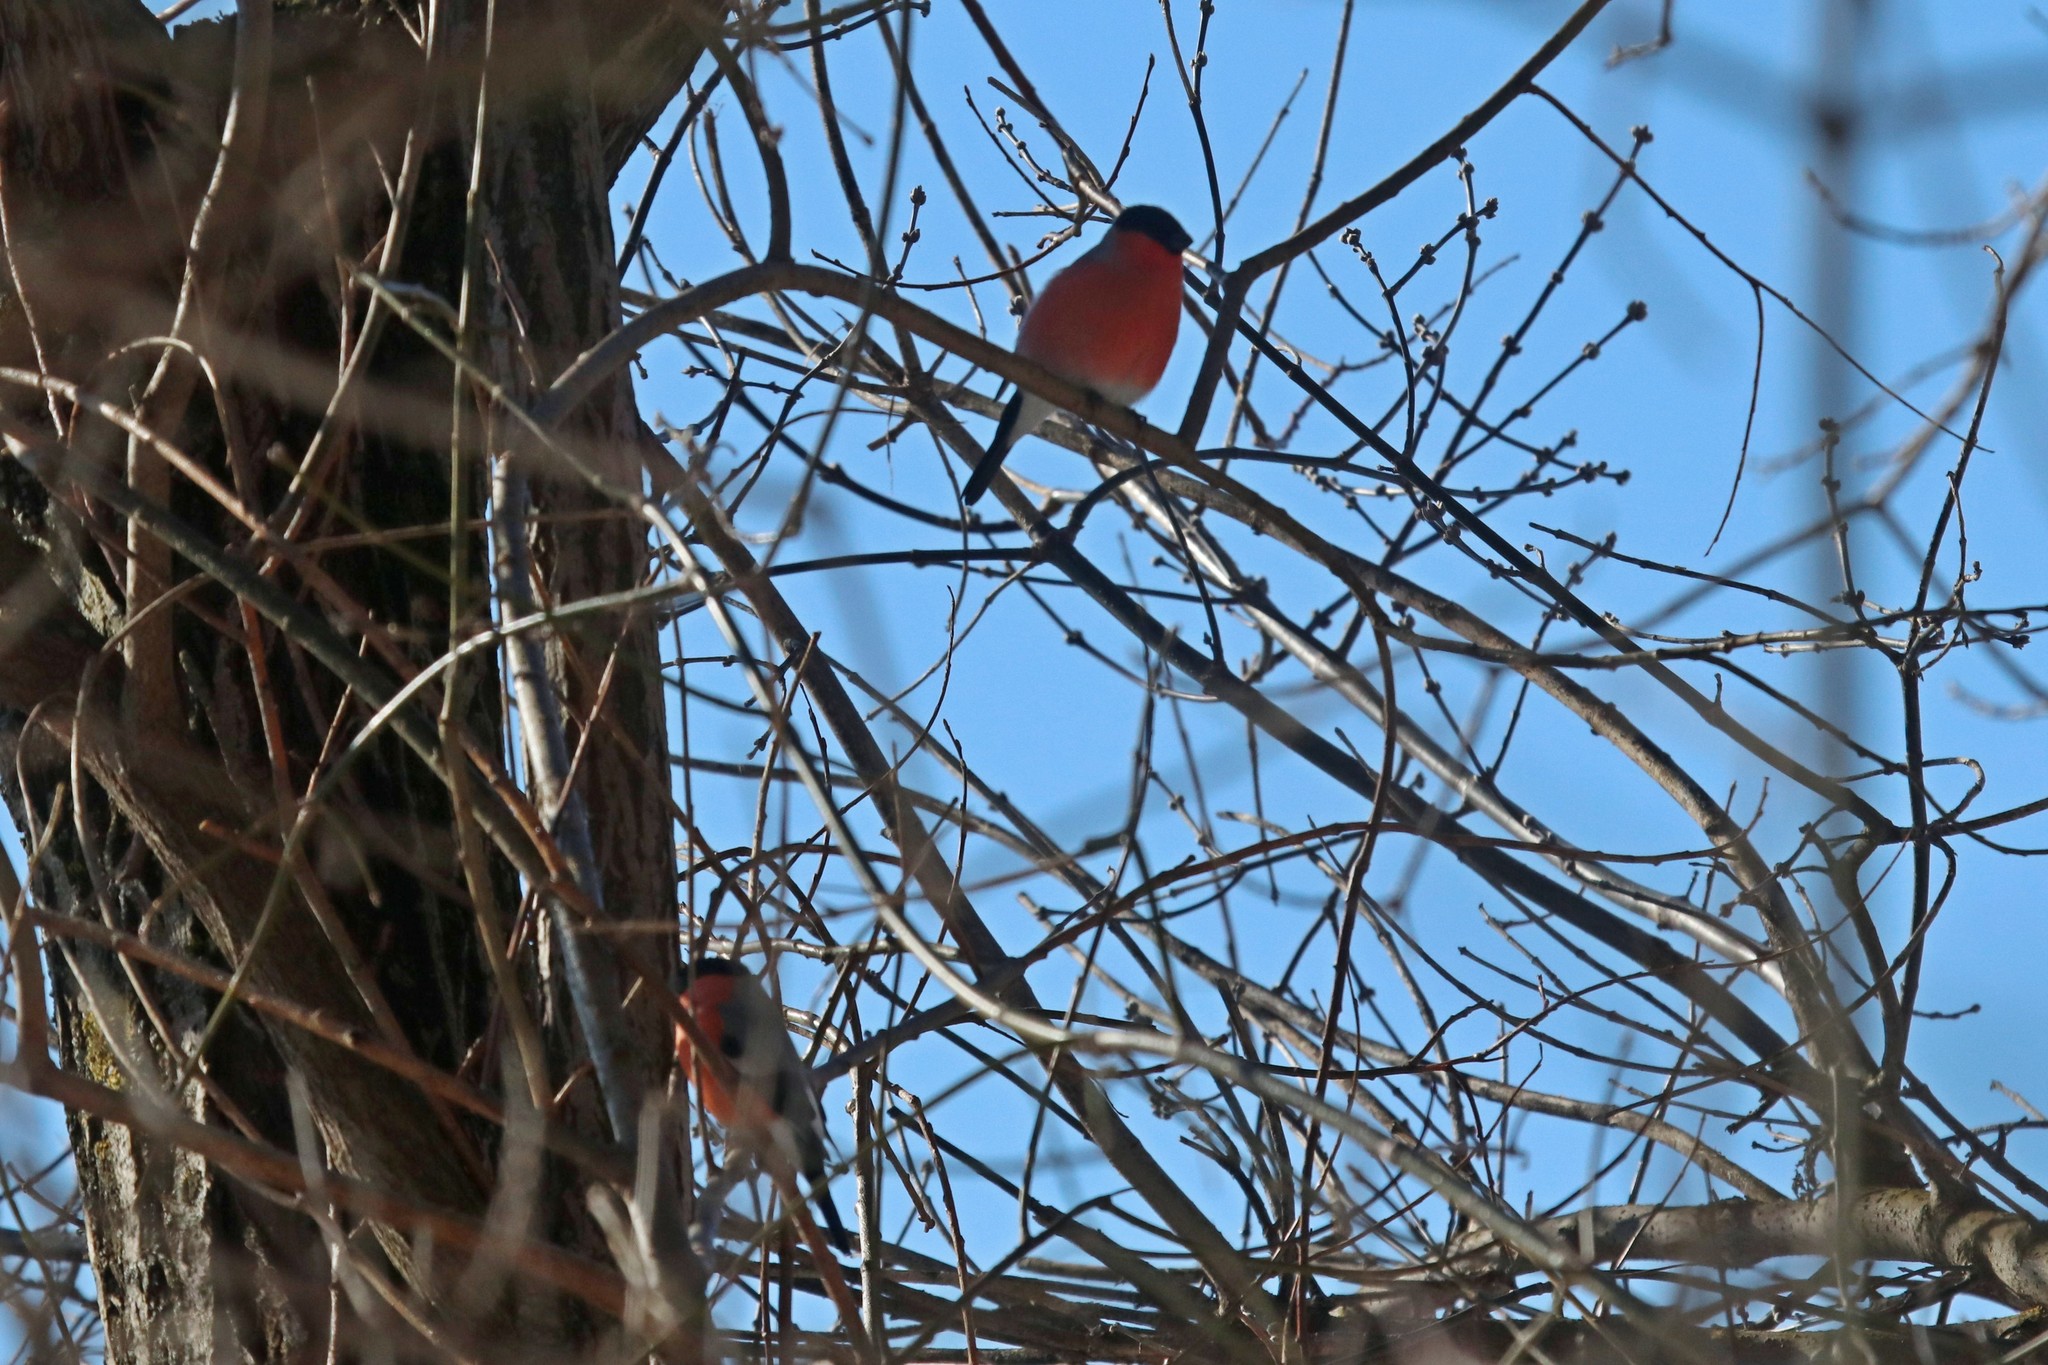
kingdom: Animalia
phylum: Chordata
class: Aves
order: Passeriformes
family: Fringillidae
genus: Pyrrhula
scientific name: Pyrrhula pyrrhula
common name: Eurasian bullfinch
